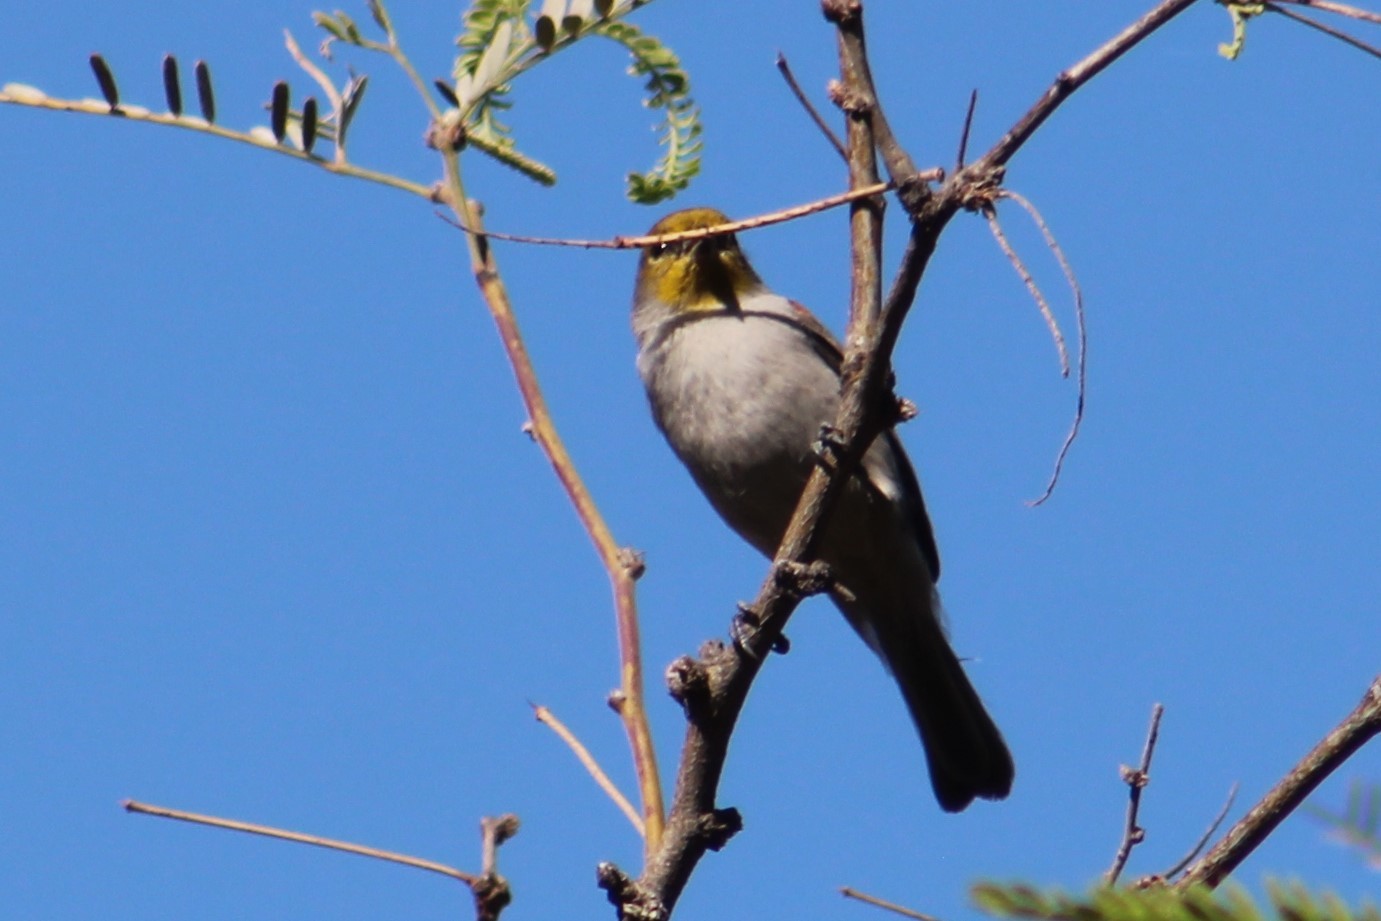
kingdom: Animalia
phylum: Chordata
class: Aves
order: Passeriformes
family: Remizidae
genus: Auriparus
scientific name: Auriparus flaviceps
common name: Verdin
